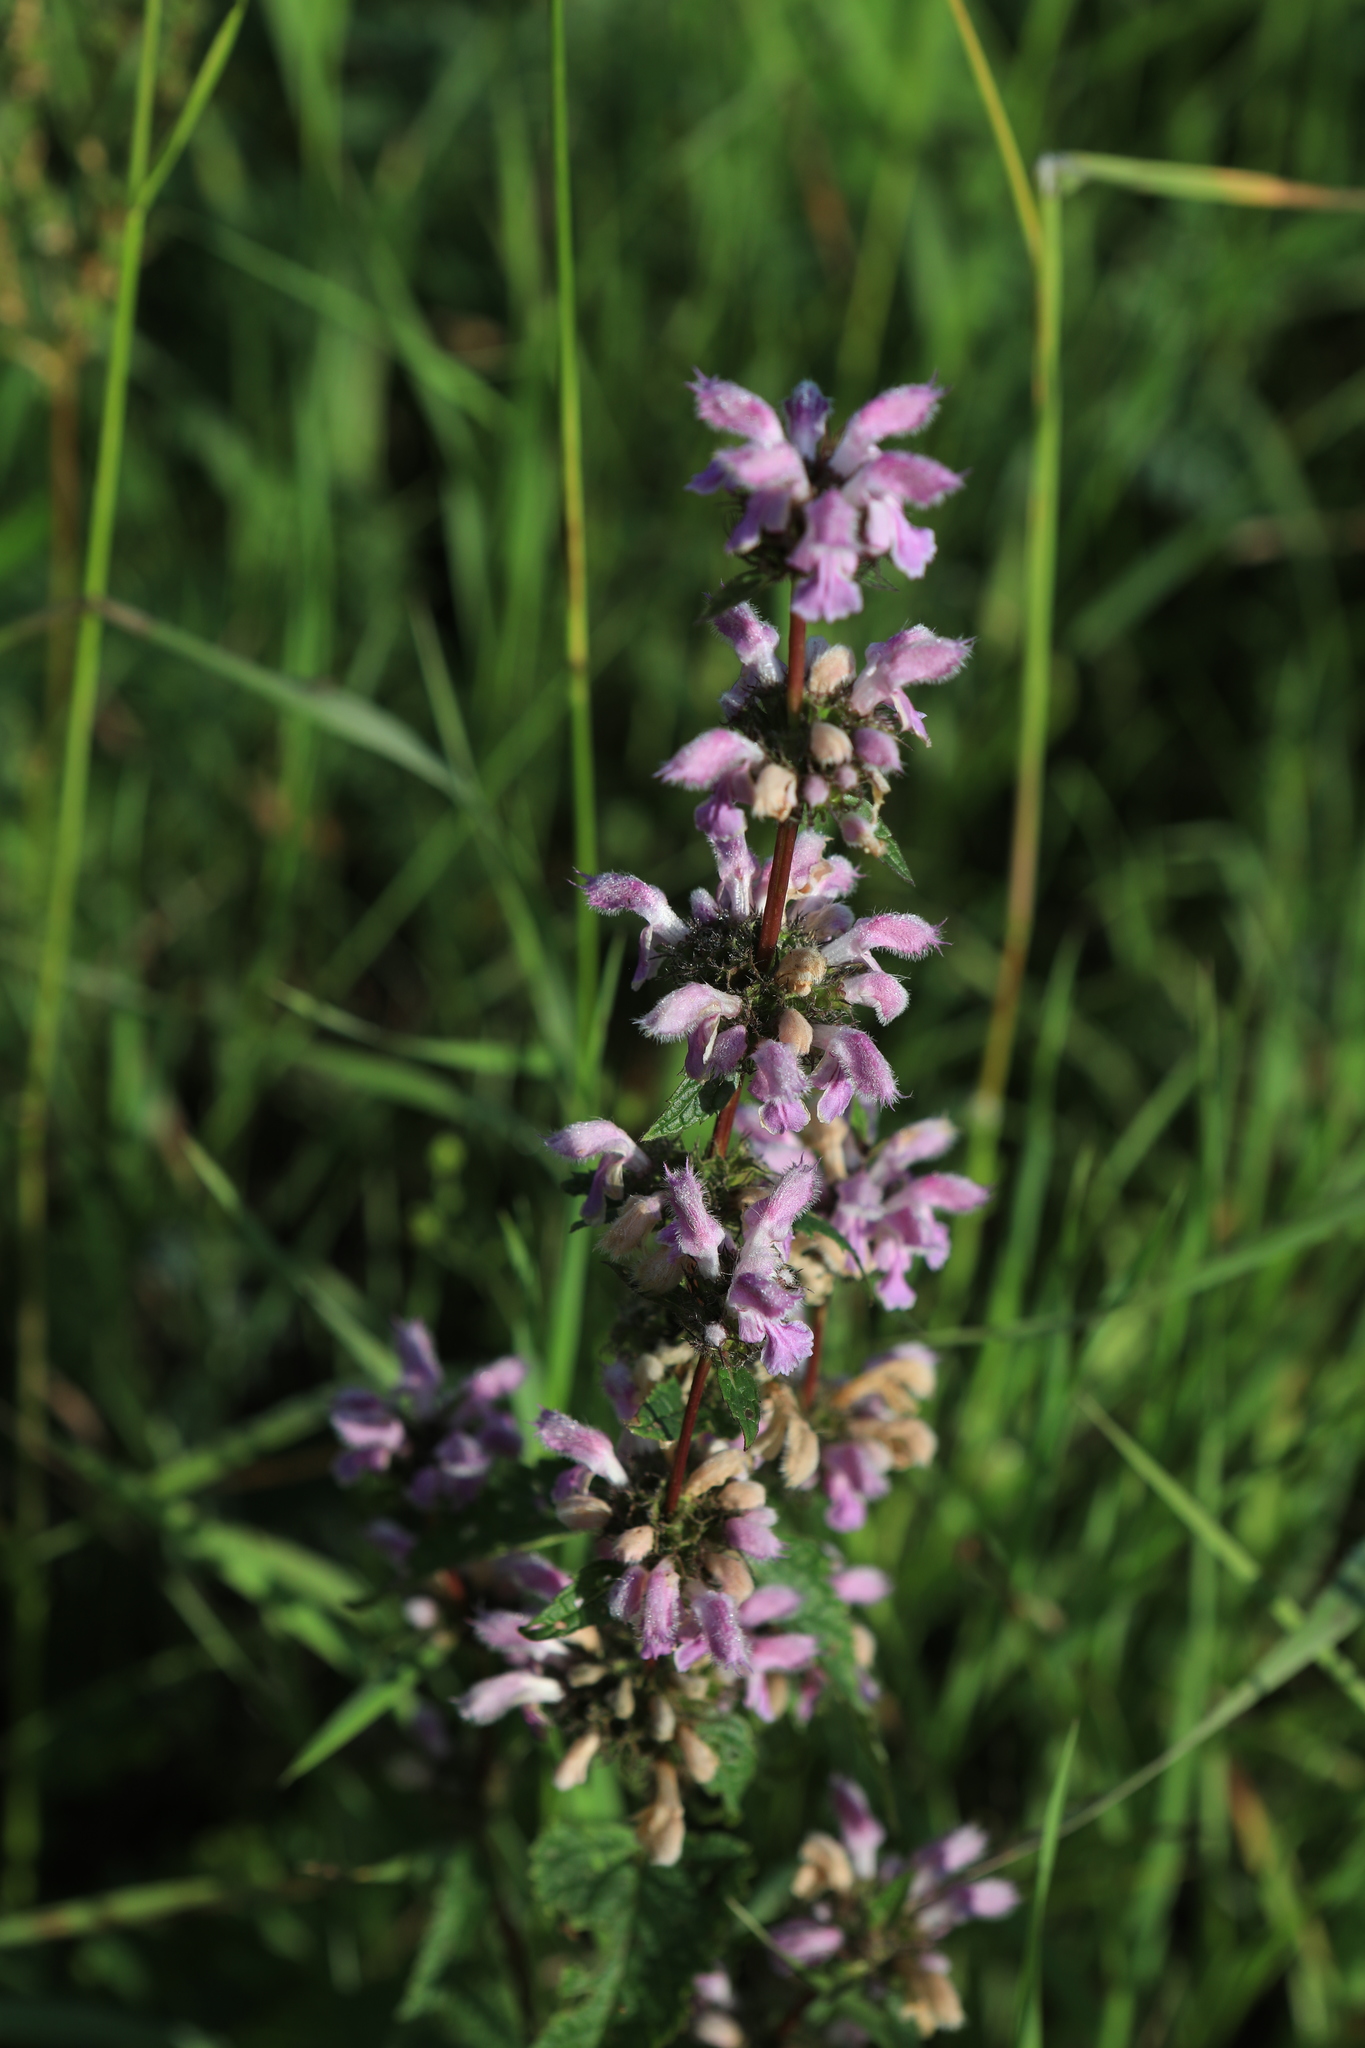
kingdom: Plantae
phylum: Tracheophyta
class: Magnoliopsida
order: Lamiales
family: Lamiaceae
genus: Phlomoides
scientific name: Phlomoides tuberosa
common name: Tuberous jerusalem sage
